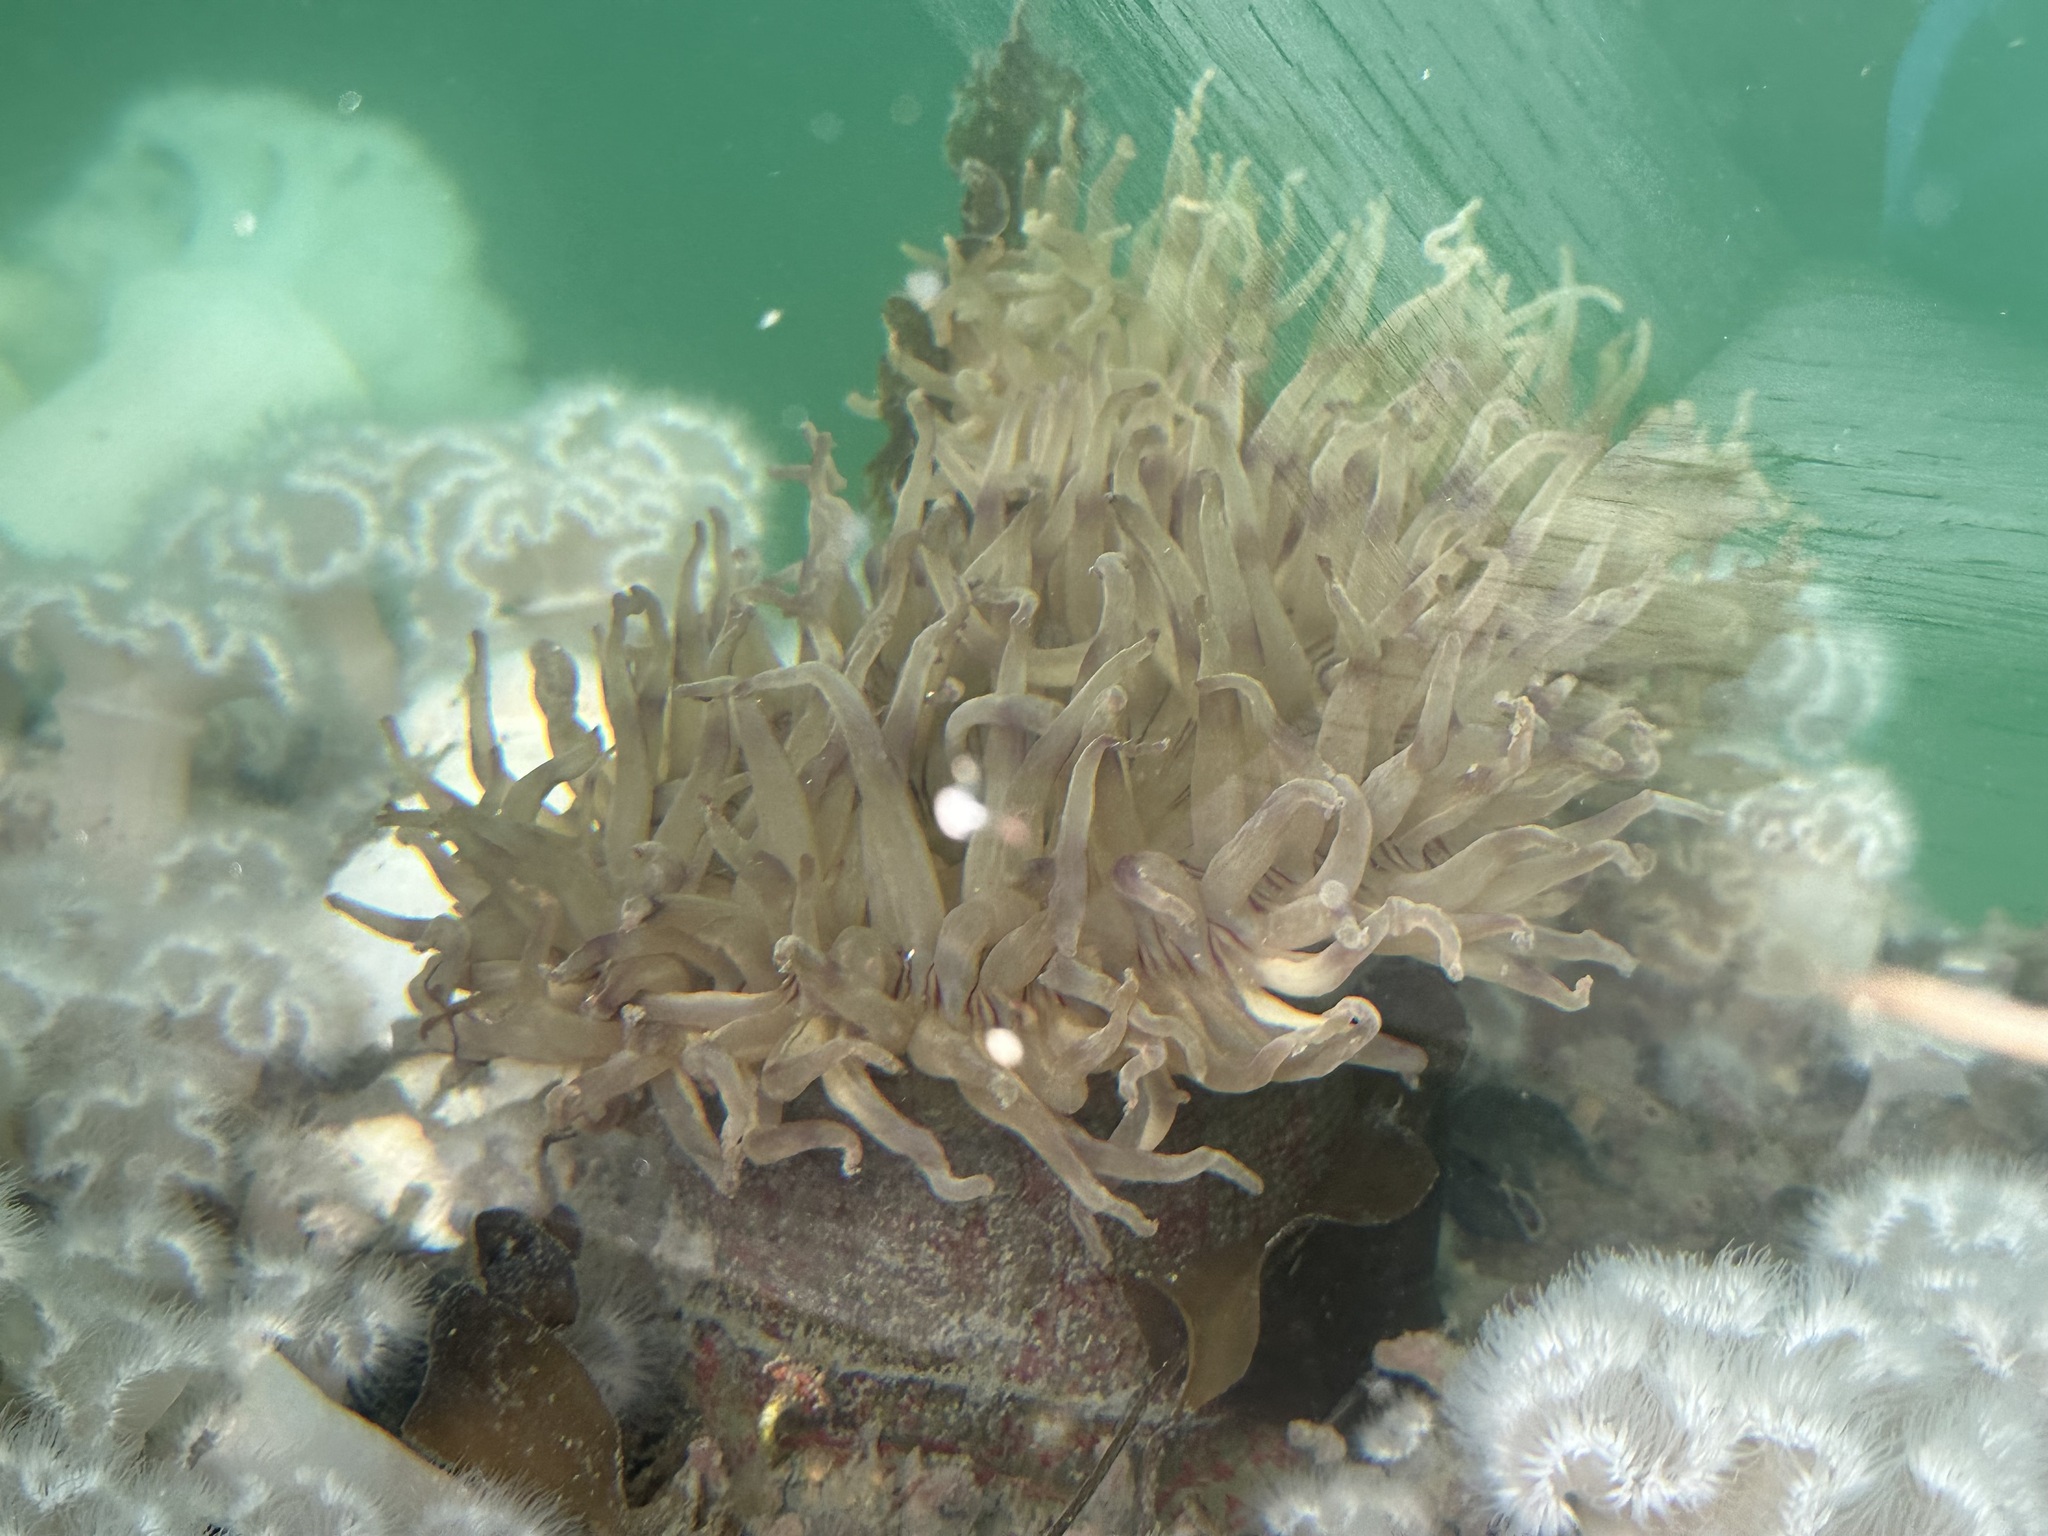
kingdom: Animalia
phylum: Cnidaria
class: Anthozoa
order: Actiniaria
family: Actiniidae
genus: Urticina
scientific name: Urticina grebelnyi
